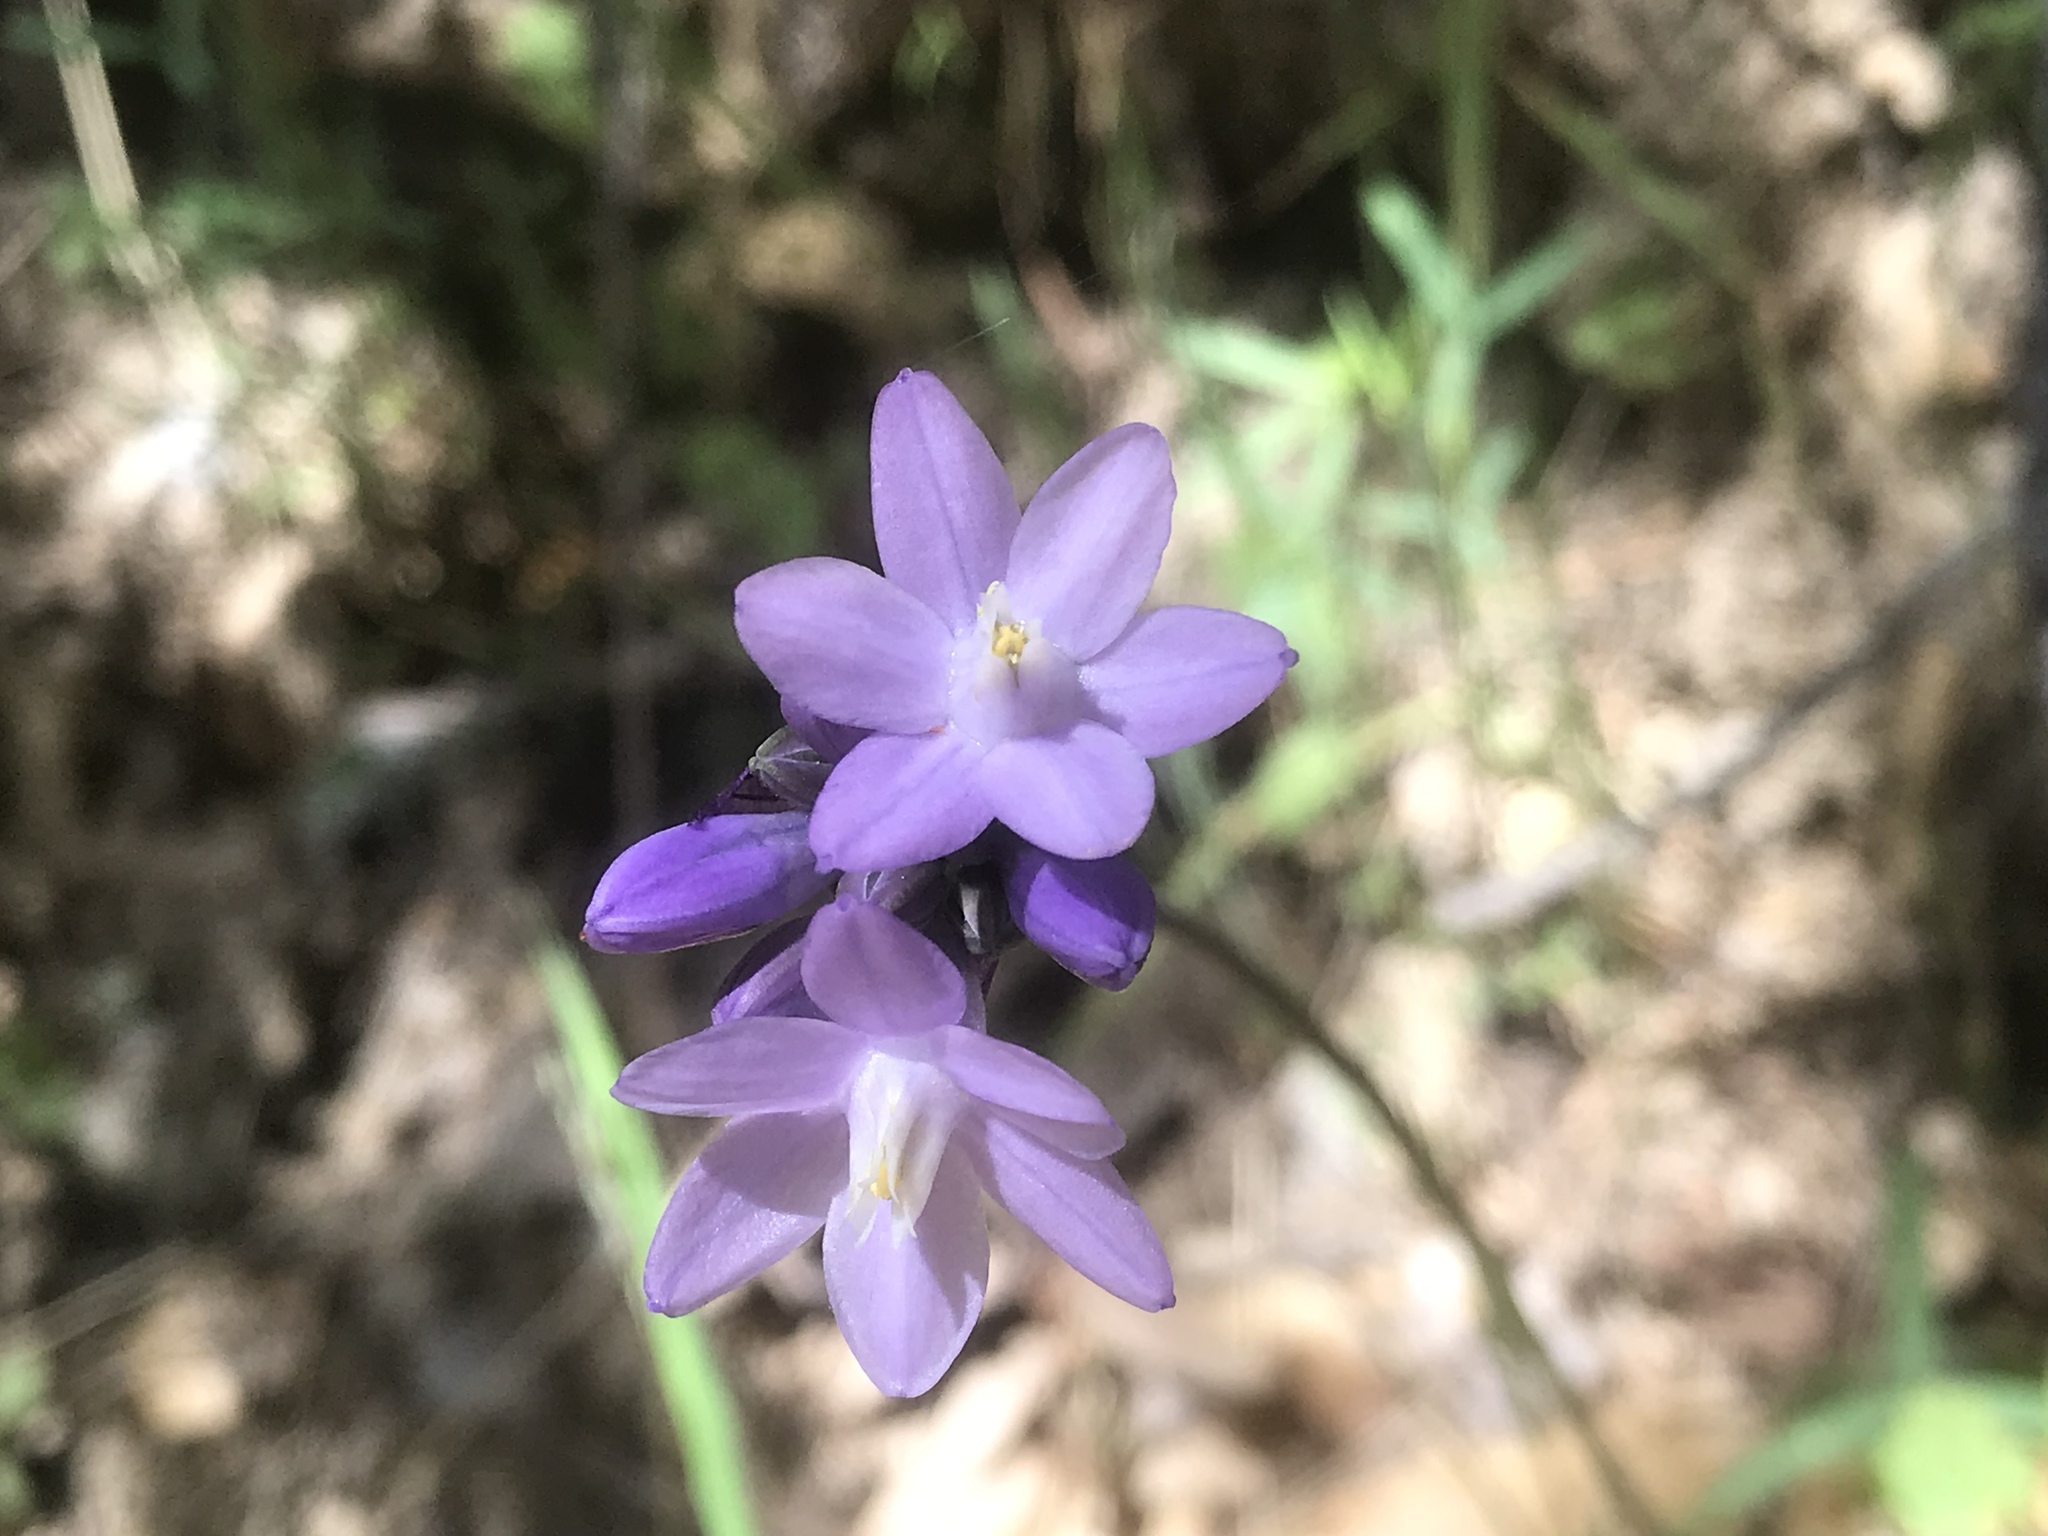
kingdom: Plantae
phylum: Tracheophyta
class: Liliopsida
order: Asparagales
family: Asparagaceae
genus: Dipterostemon
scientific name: Dipterostemon capitatus
